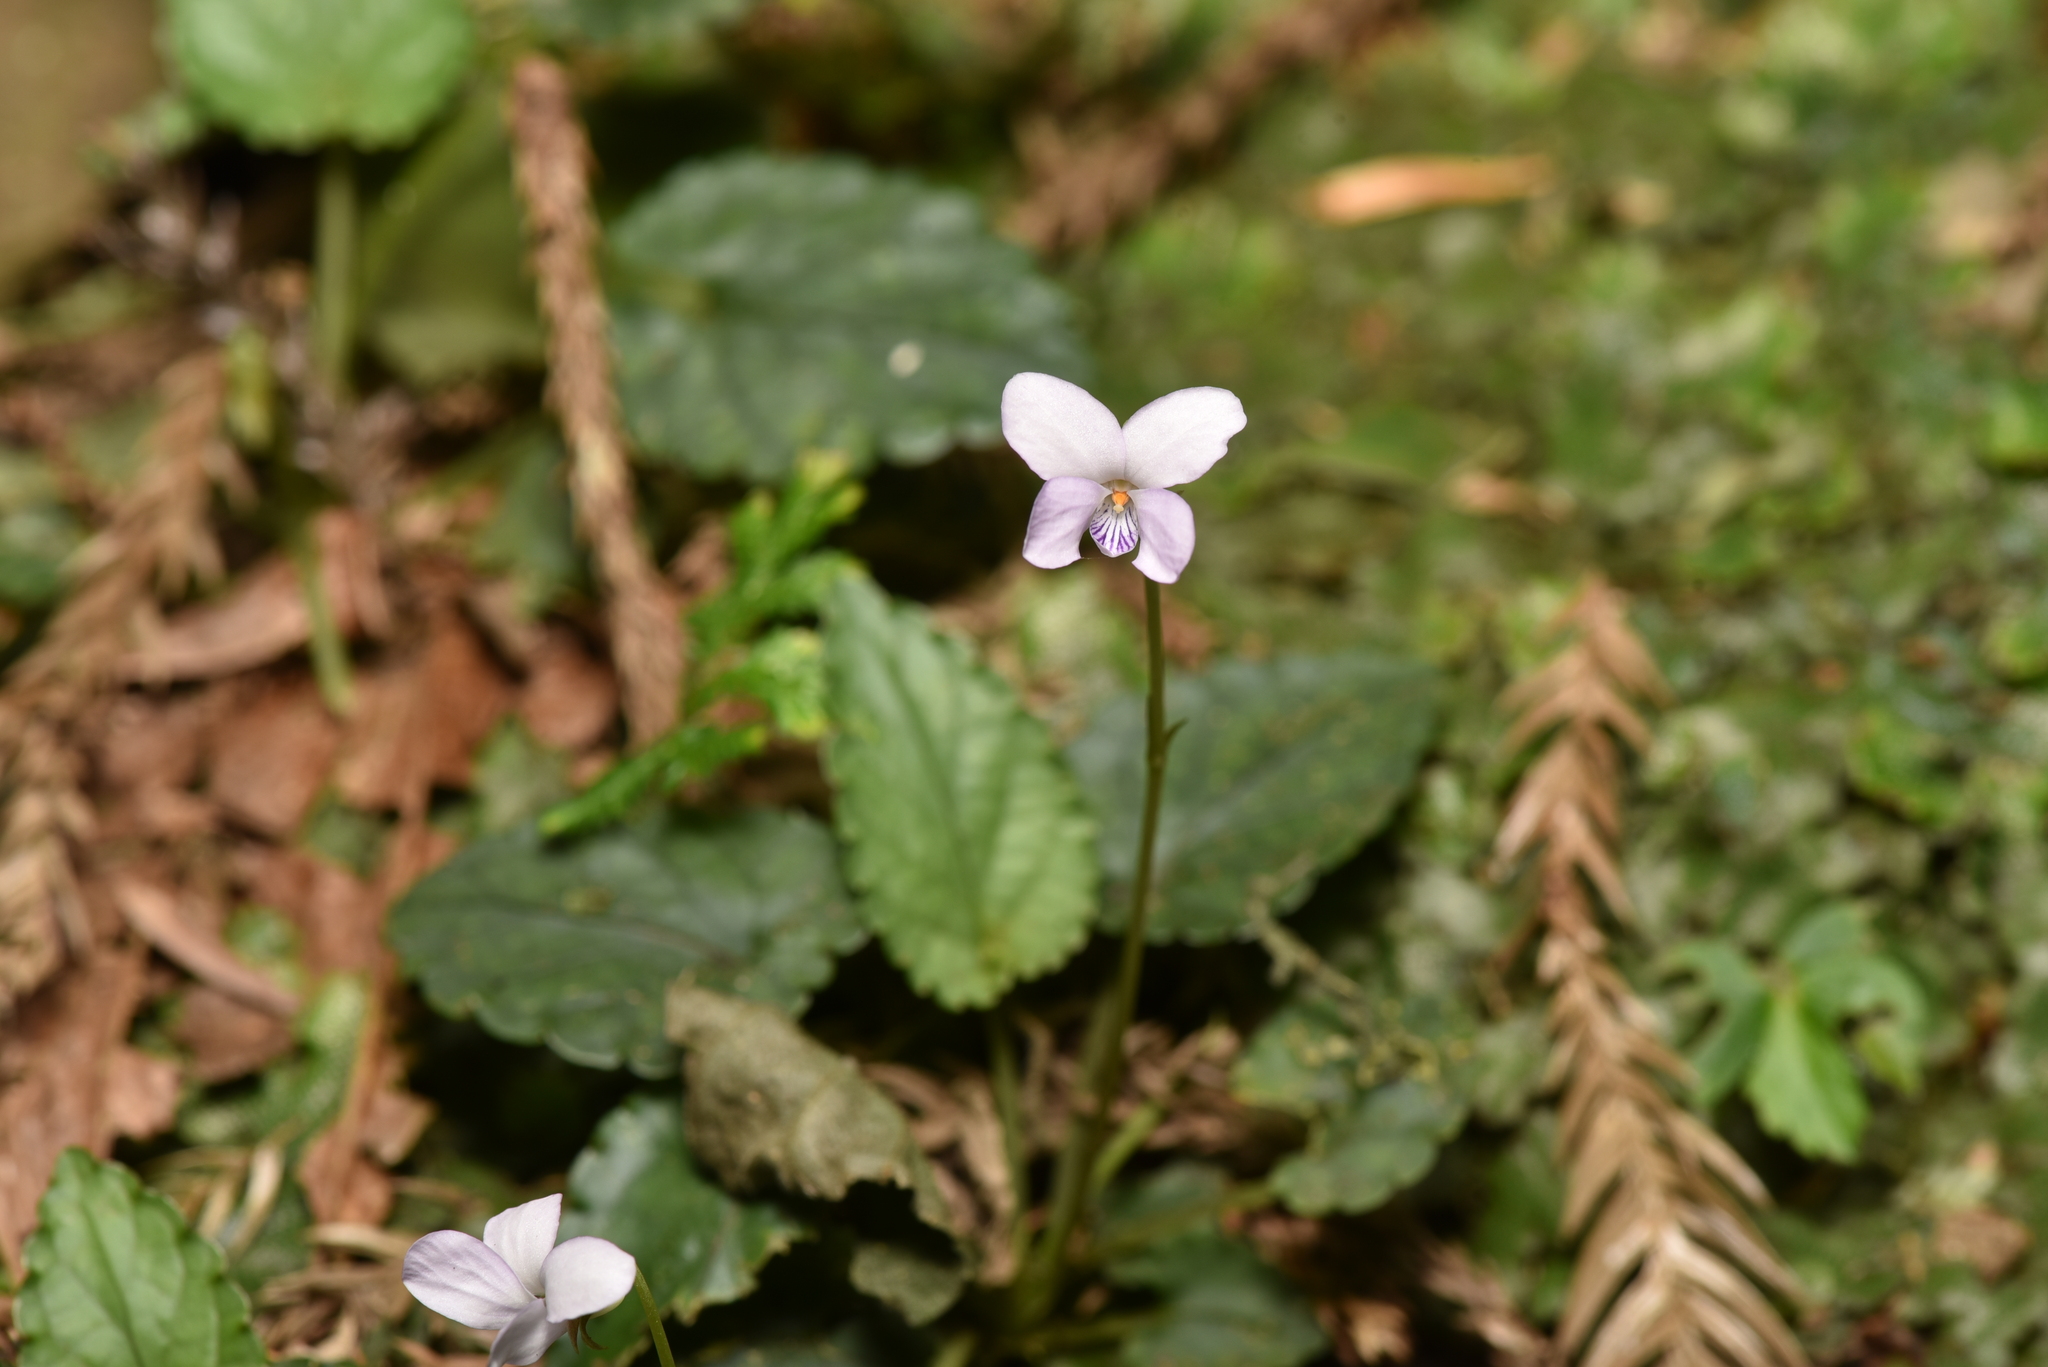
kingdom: Plantae
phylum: Tracheophyta
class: Magnoliopsida
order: Malpighiales
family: Violaceae
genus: Viola
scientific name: Viola mucronulifera
